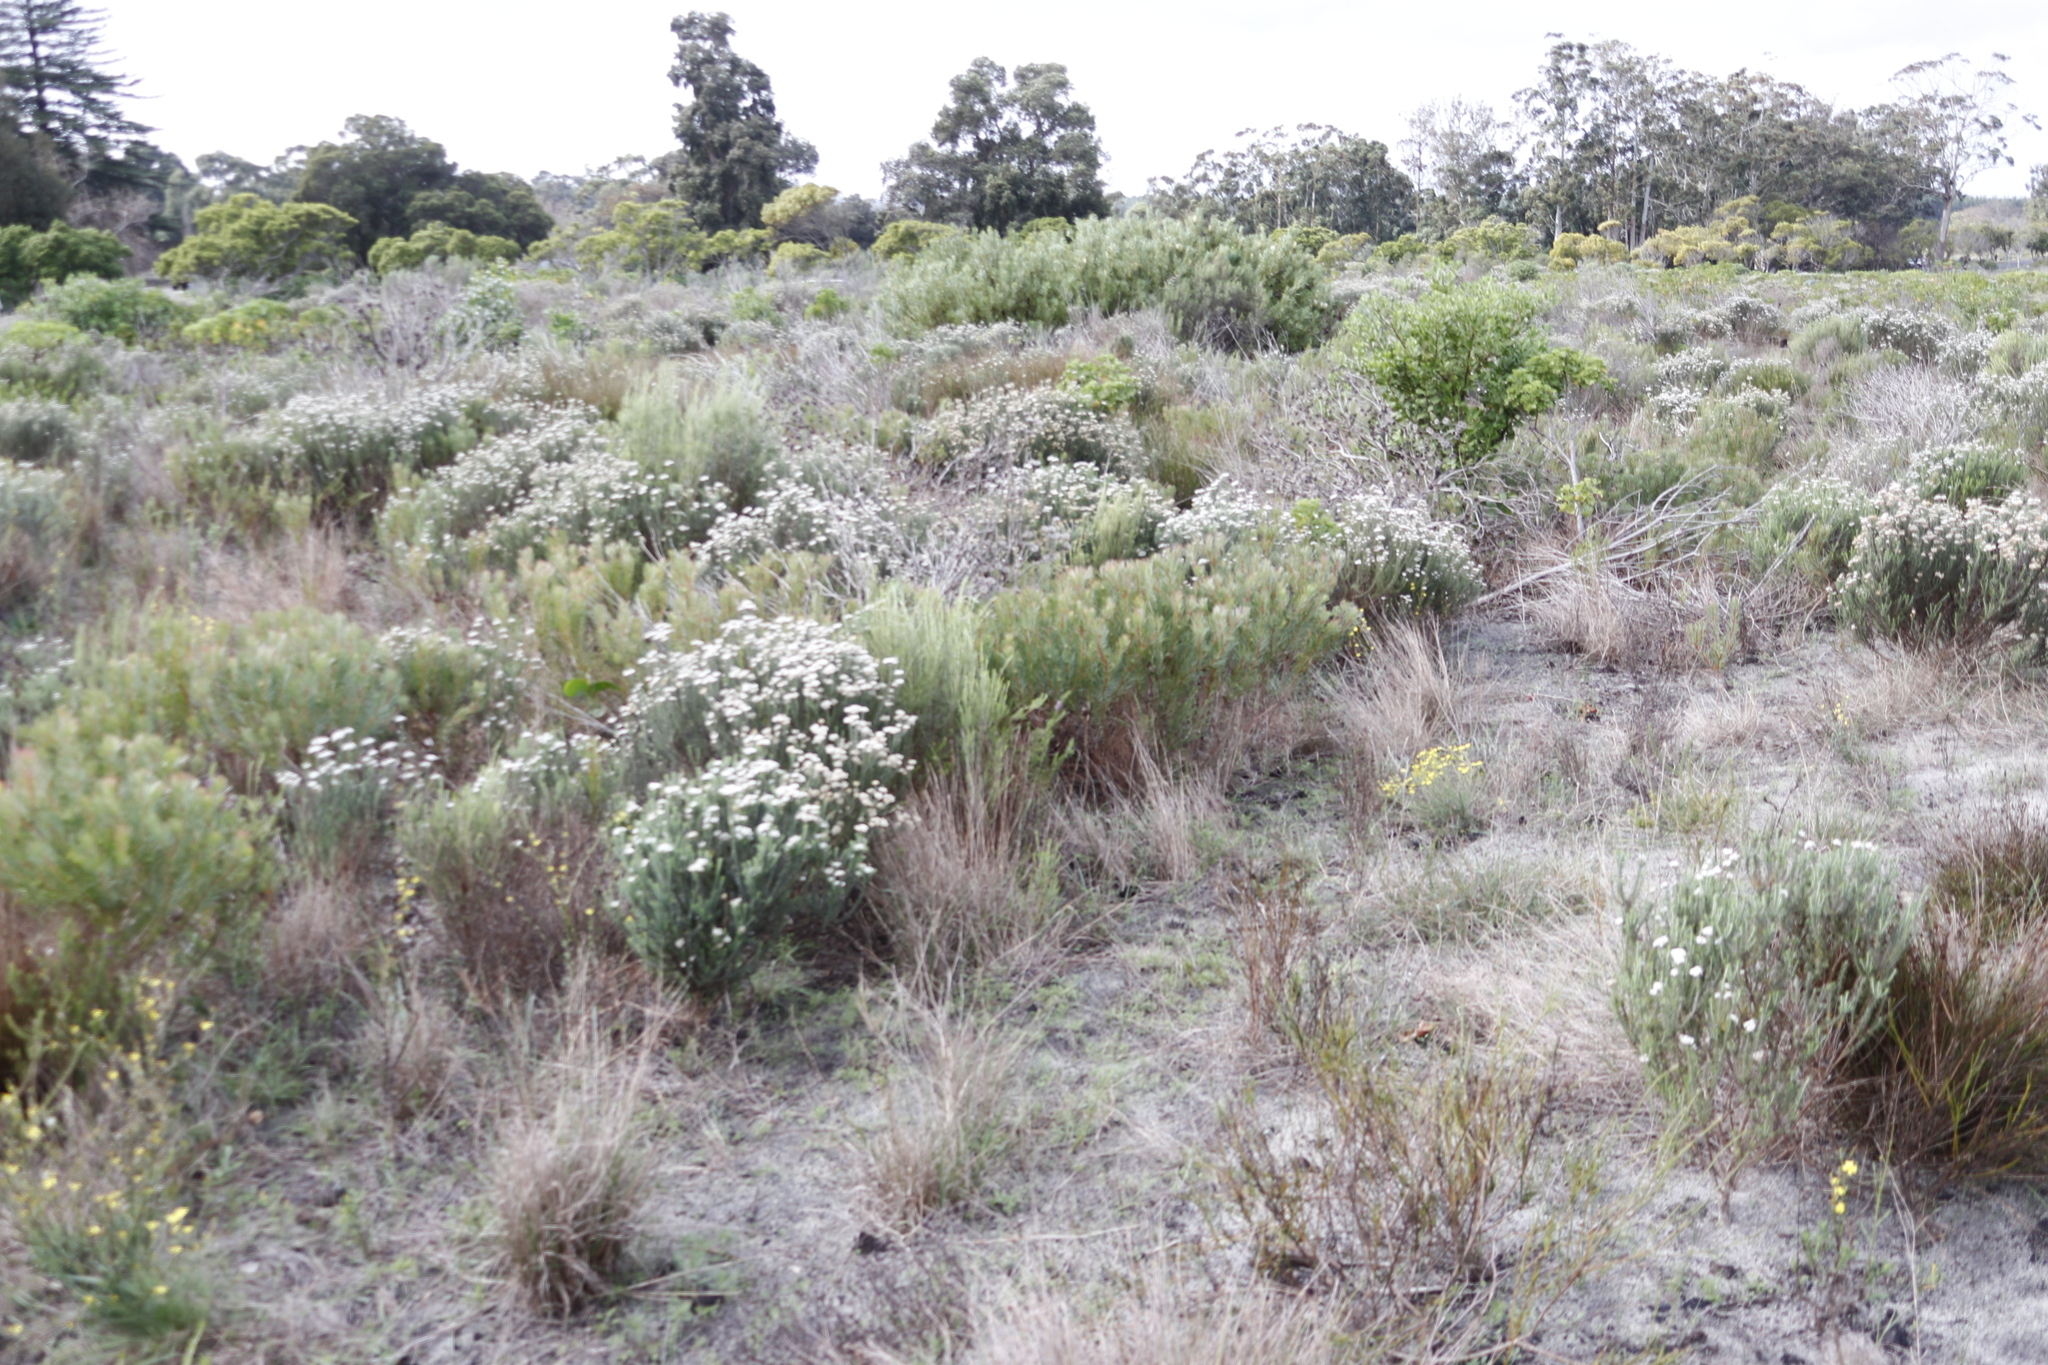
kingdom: Plantae
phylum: Tracheophyta
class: Magnoliopsida
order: Proteales
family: Proteaceae
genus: Protea
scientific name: Protea scolymocephala
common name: Thistle sugarbush
